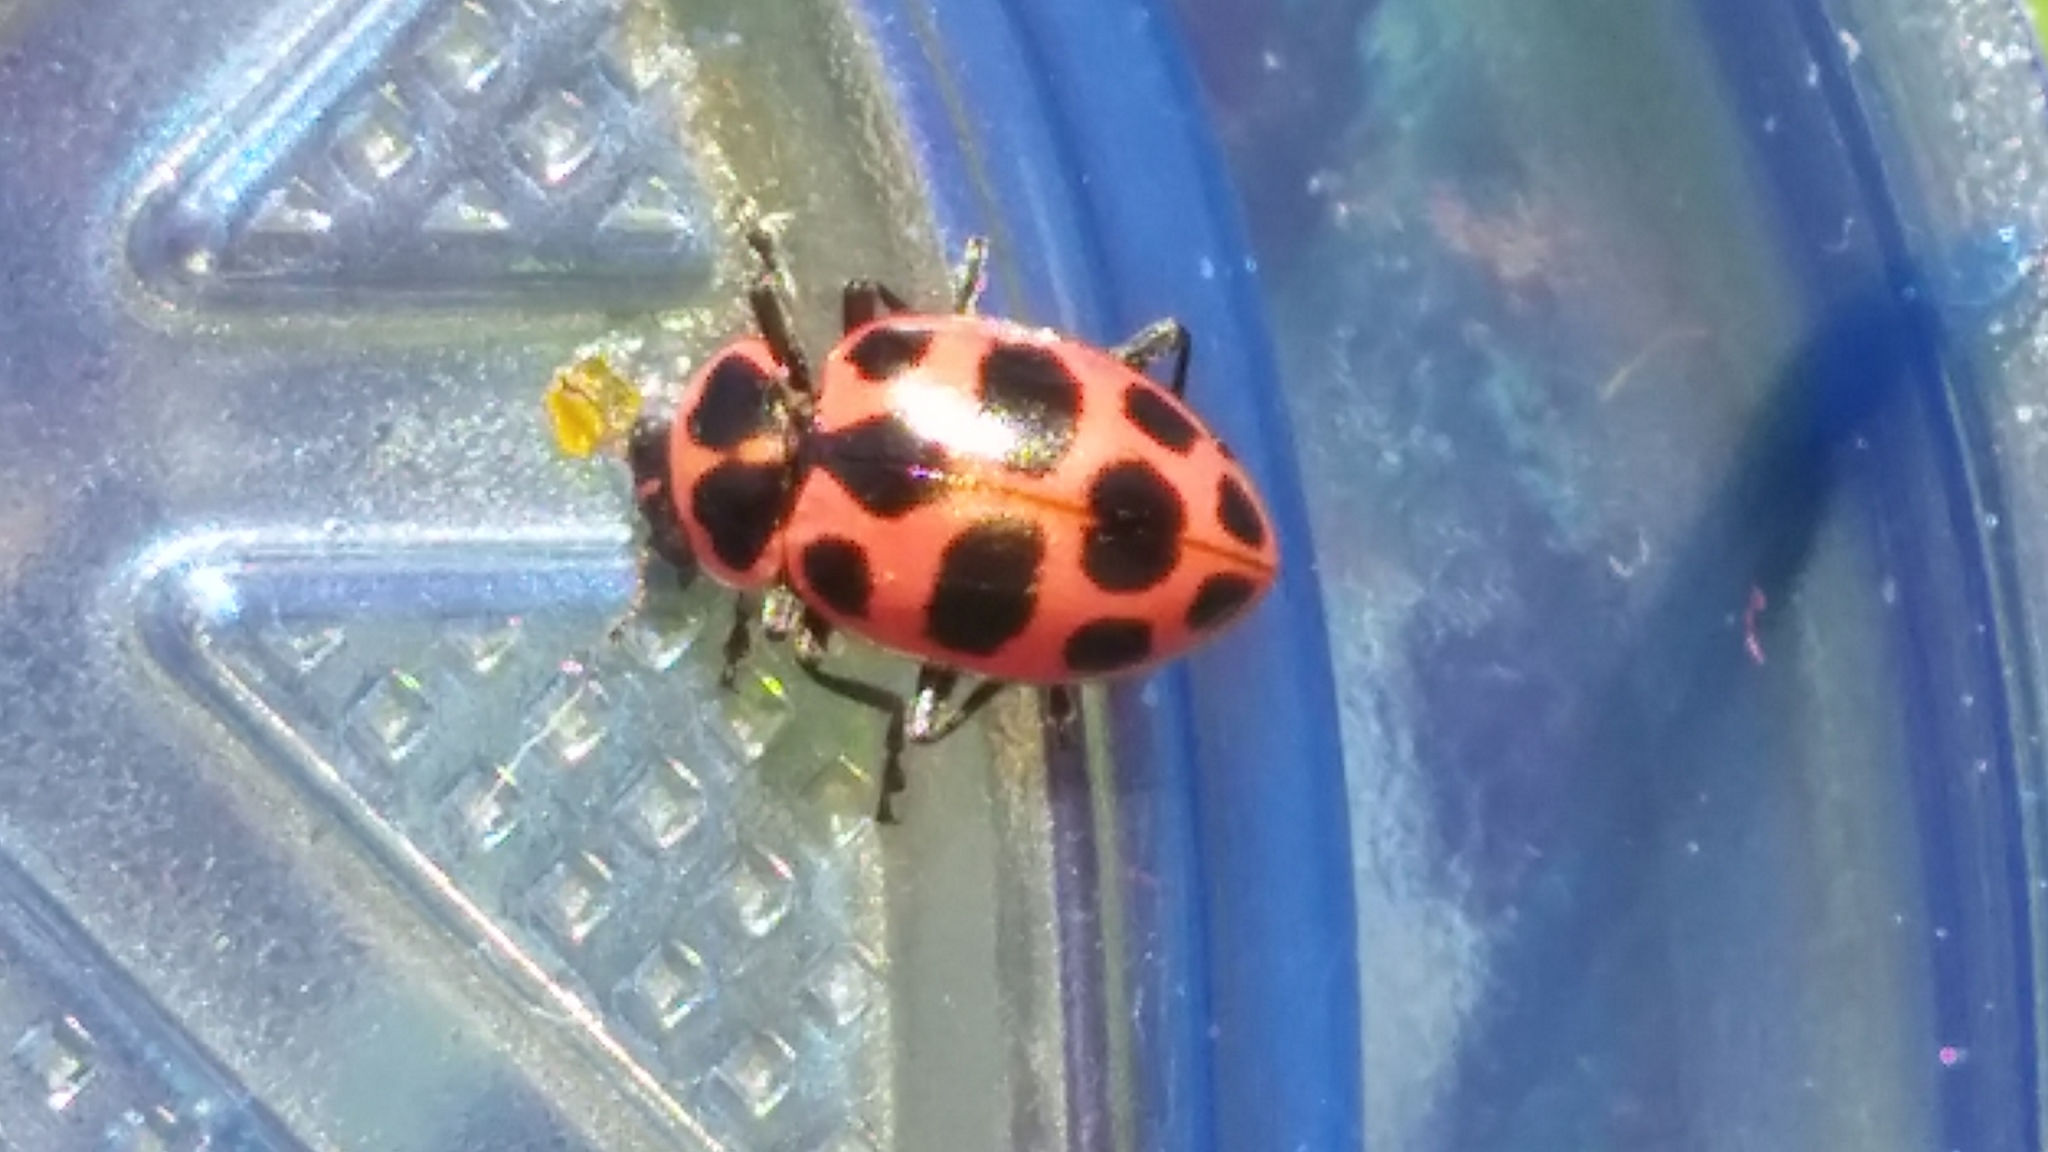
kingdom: Animalia
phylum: Arthropoda
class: Insecta
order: Coleoptera
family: Coccinellidae
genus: Coleomegilla
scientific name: Coleomegilla maculata
